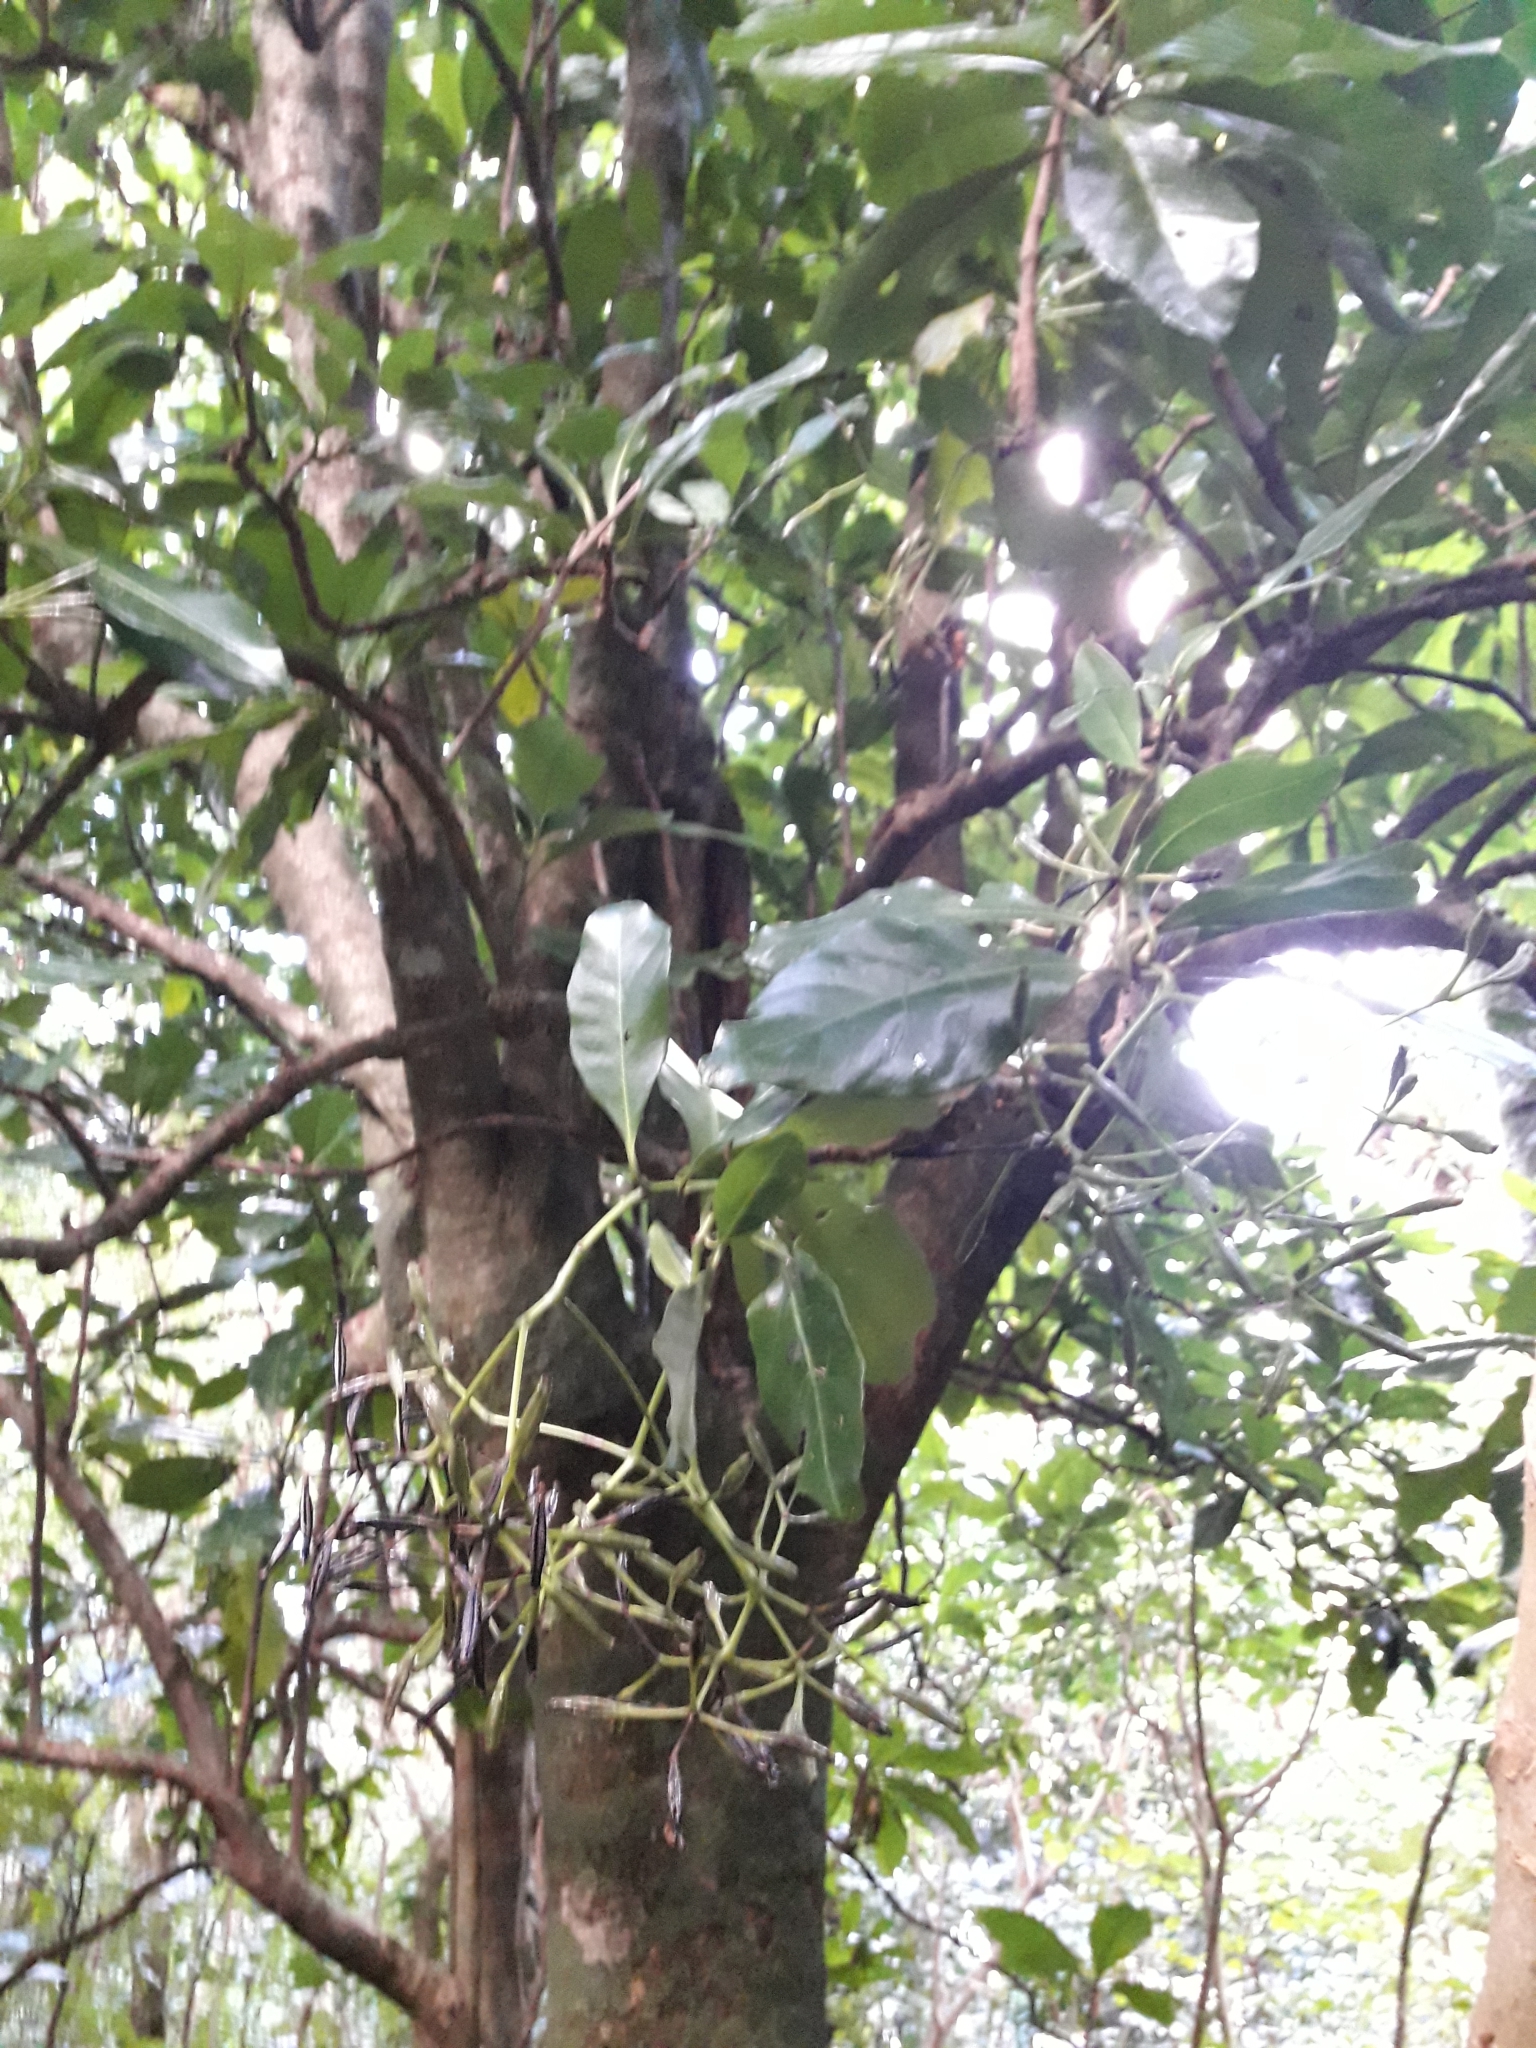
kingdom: Plantae
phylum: Tracheophyta
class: Magnoliopsida
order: Caryophyllales
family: Nyctaginaceae
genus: Ceodes
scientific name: Ceodes brunoniana
